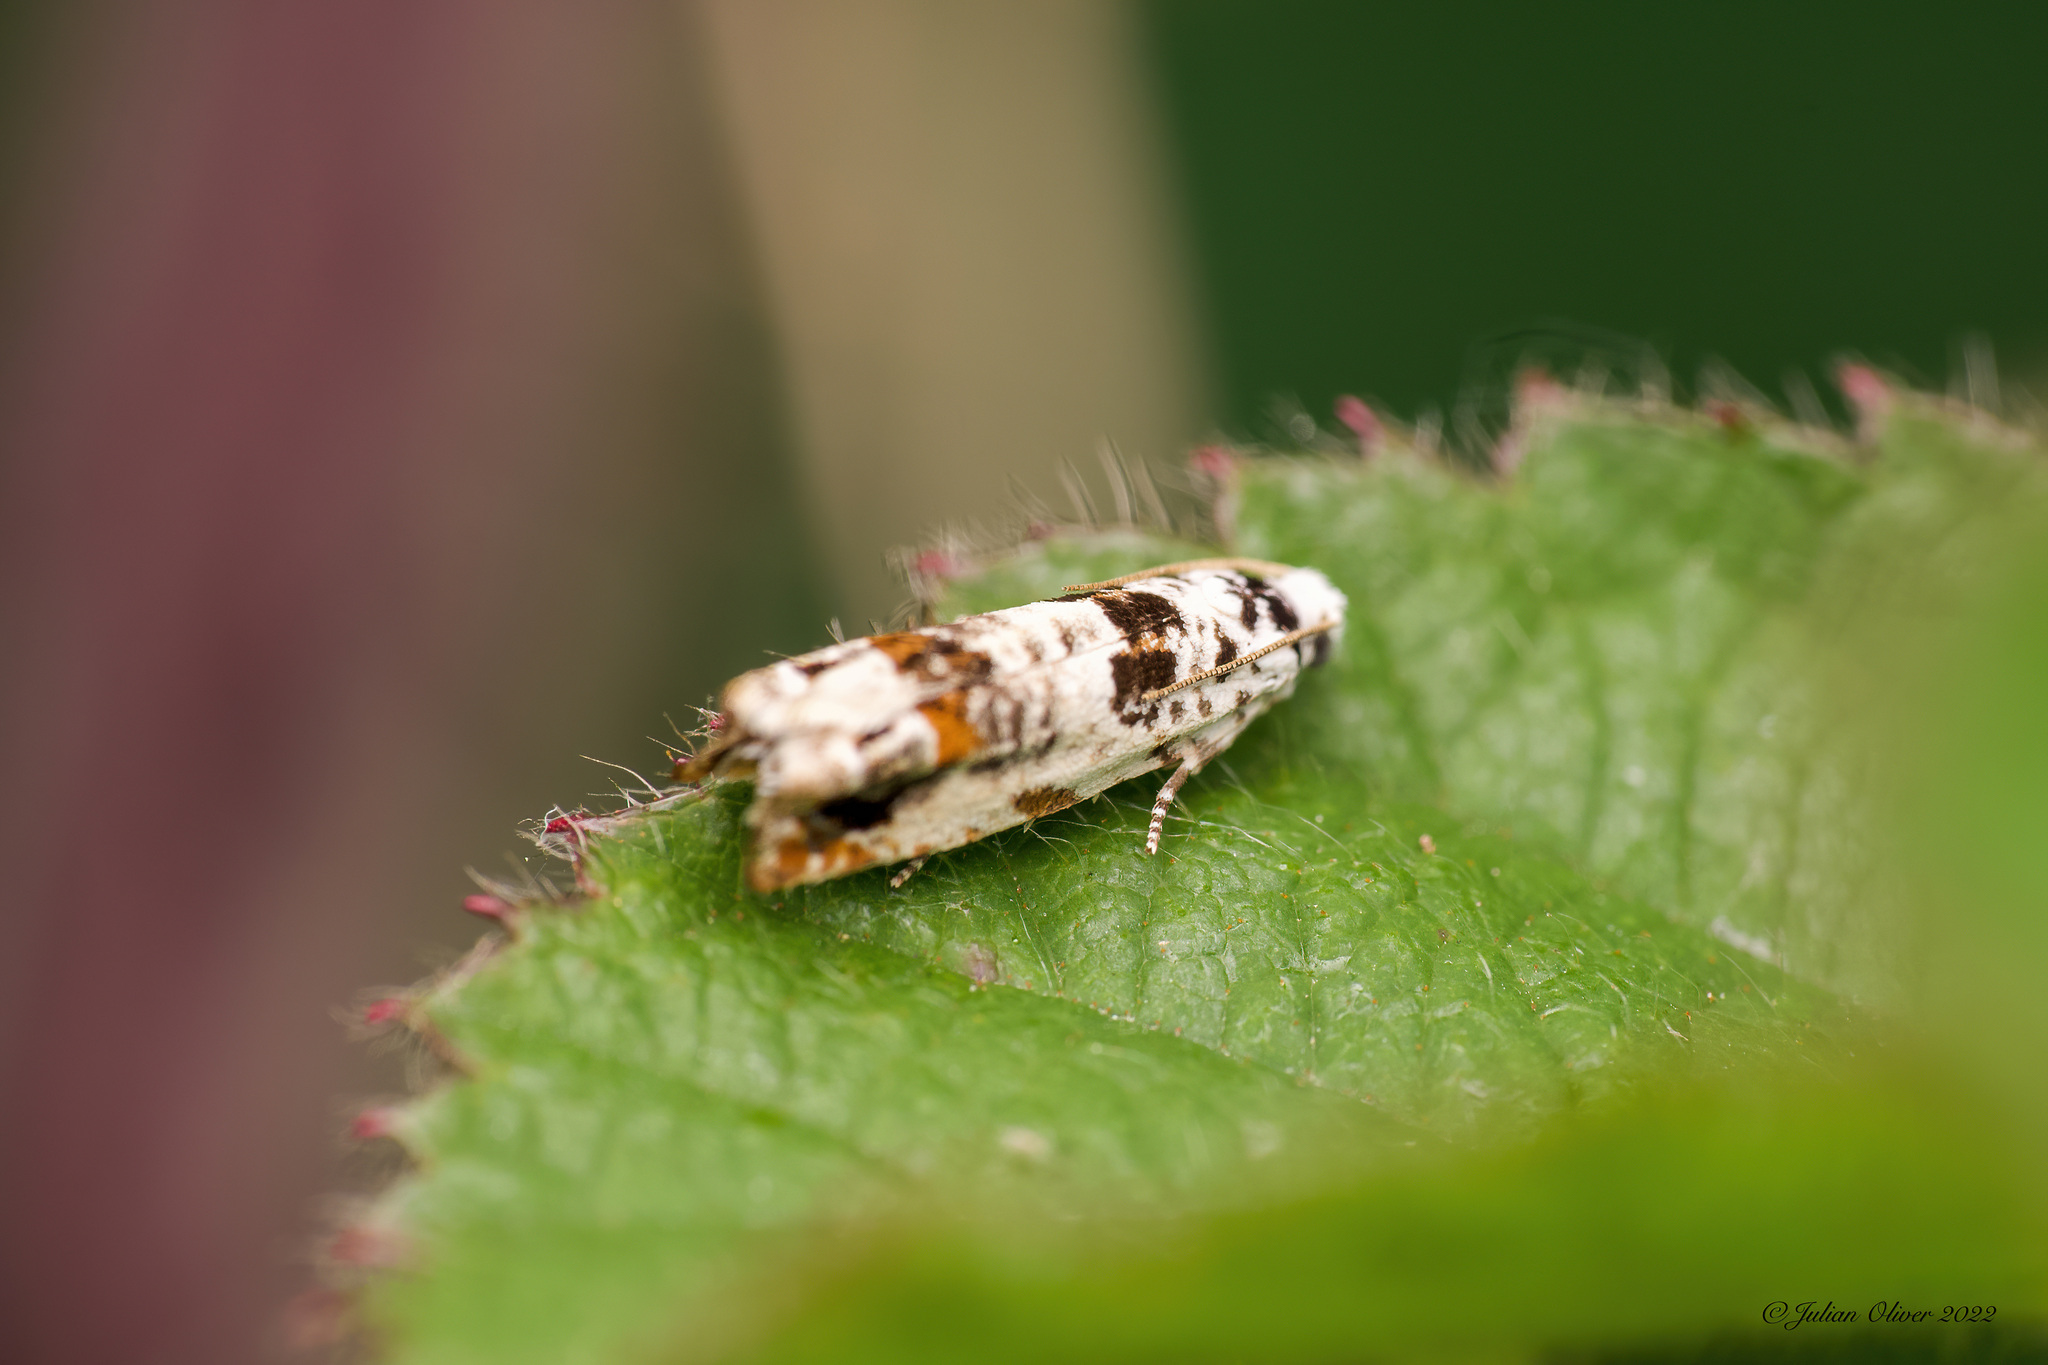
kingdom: Animalia
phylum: Arthropoda
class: Insecta
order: Lepidoptera
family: Tortricidae
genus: Eucosma
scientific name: Eucosma campoliliana
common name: Marbled bell
